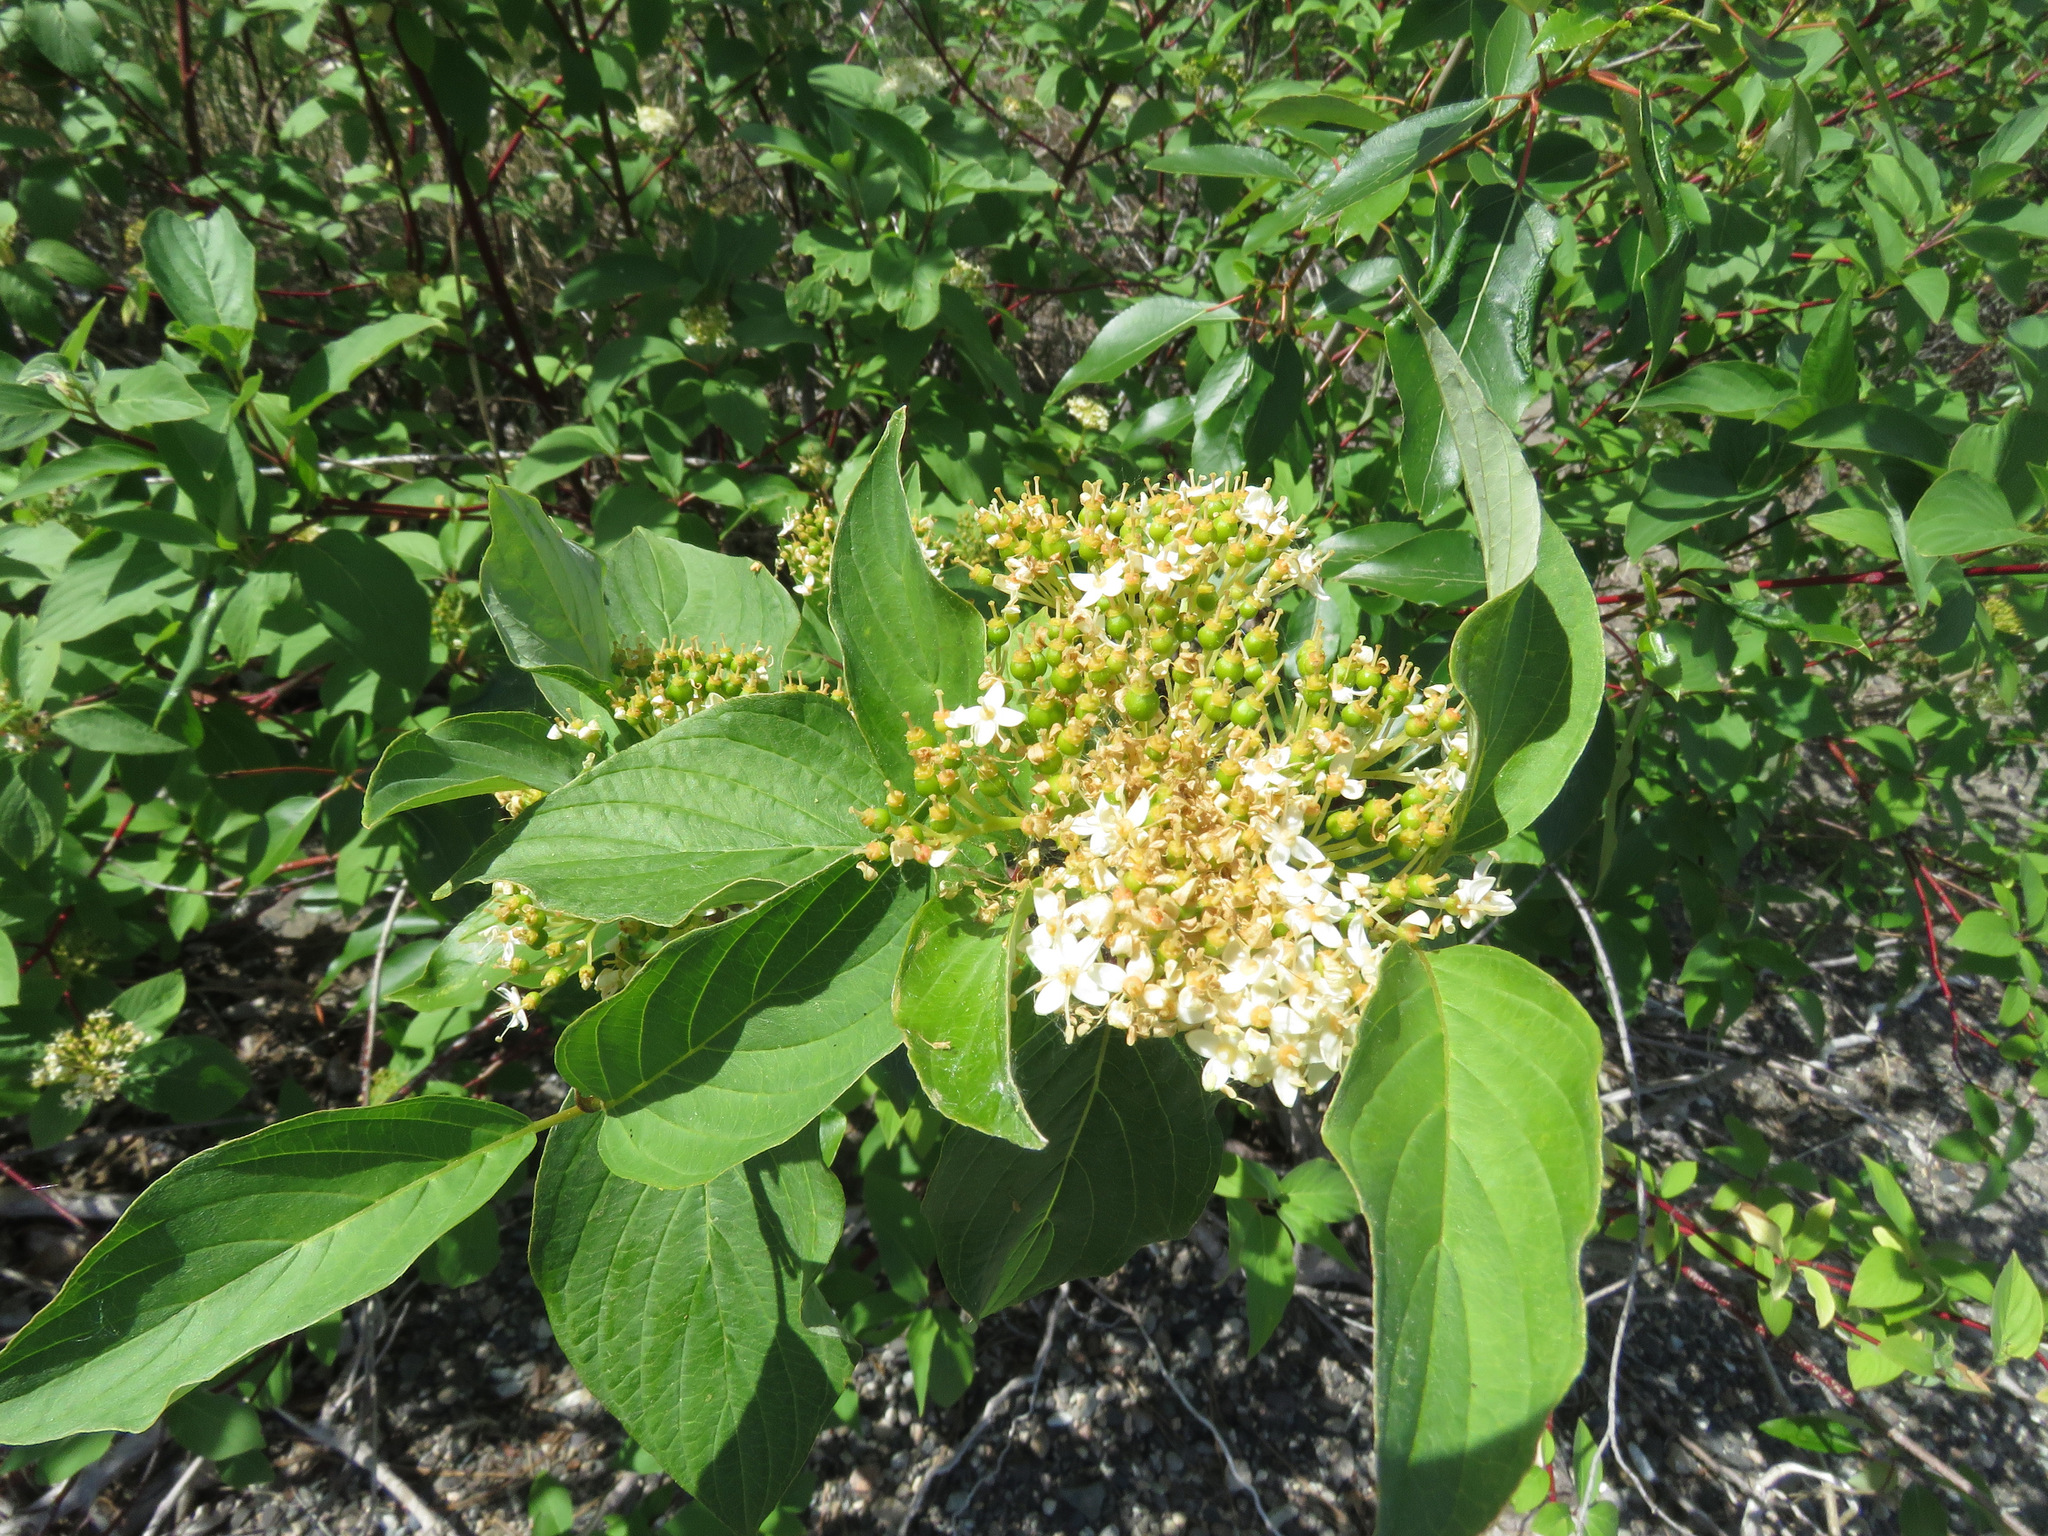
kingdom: Plantae
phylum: Tracheophyta
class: Magnoliopsida
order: Cornales
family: Cornaceae
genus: Cornus
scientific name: Cornus sericea
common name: Red-osier dogwood
